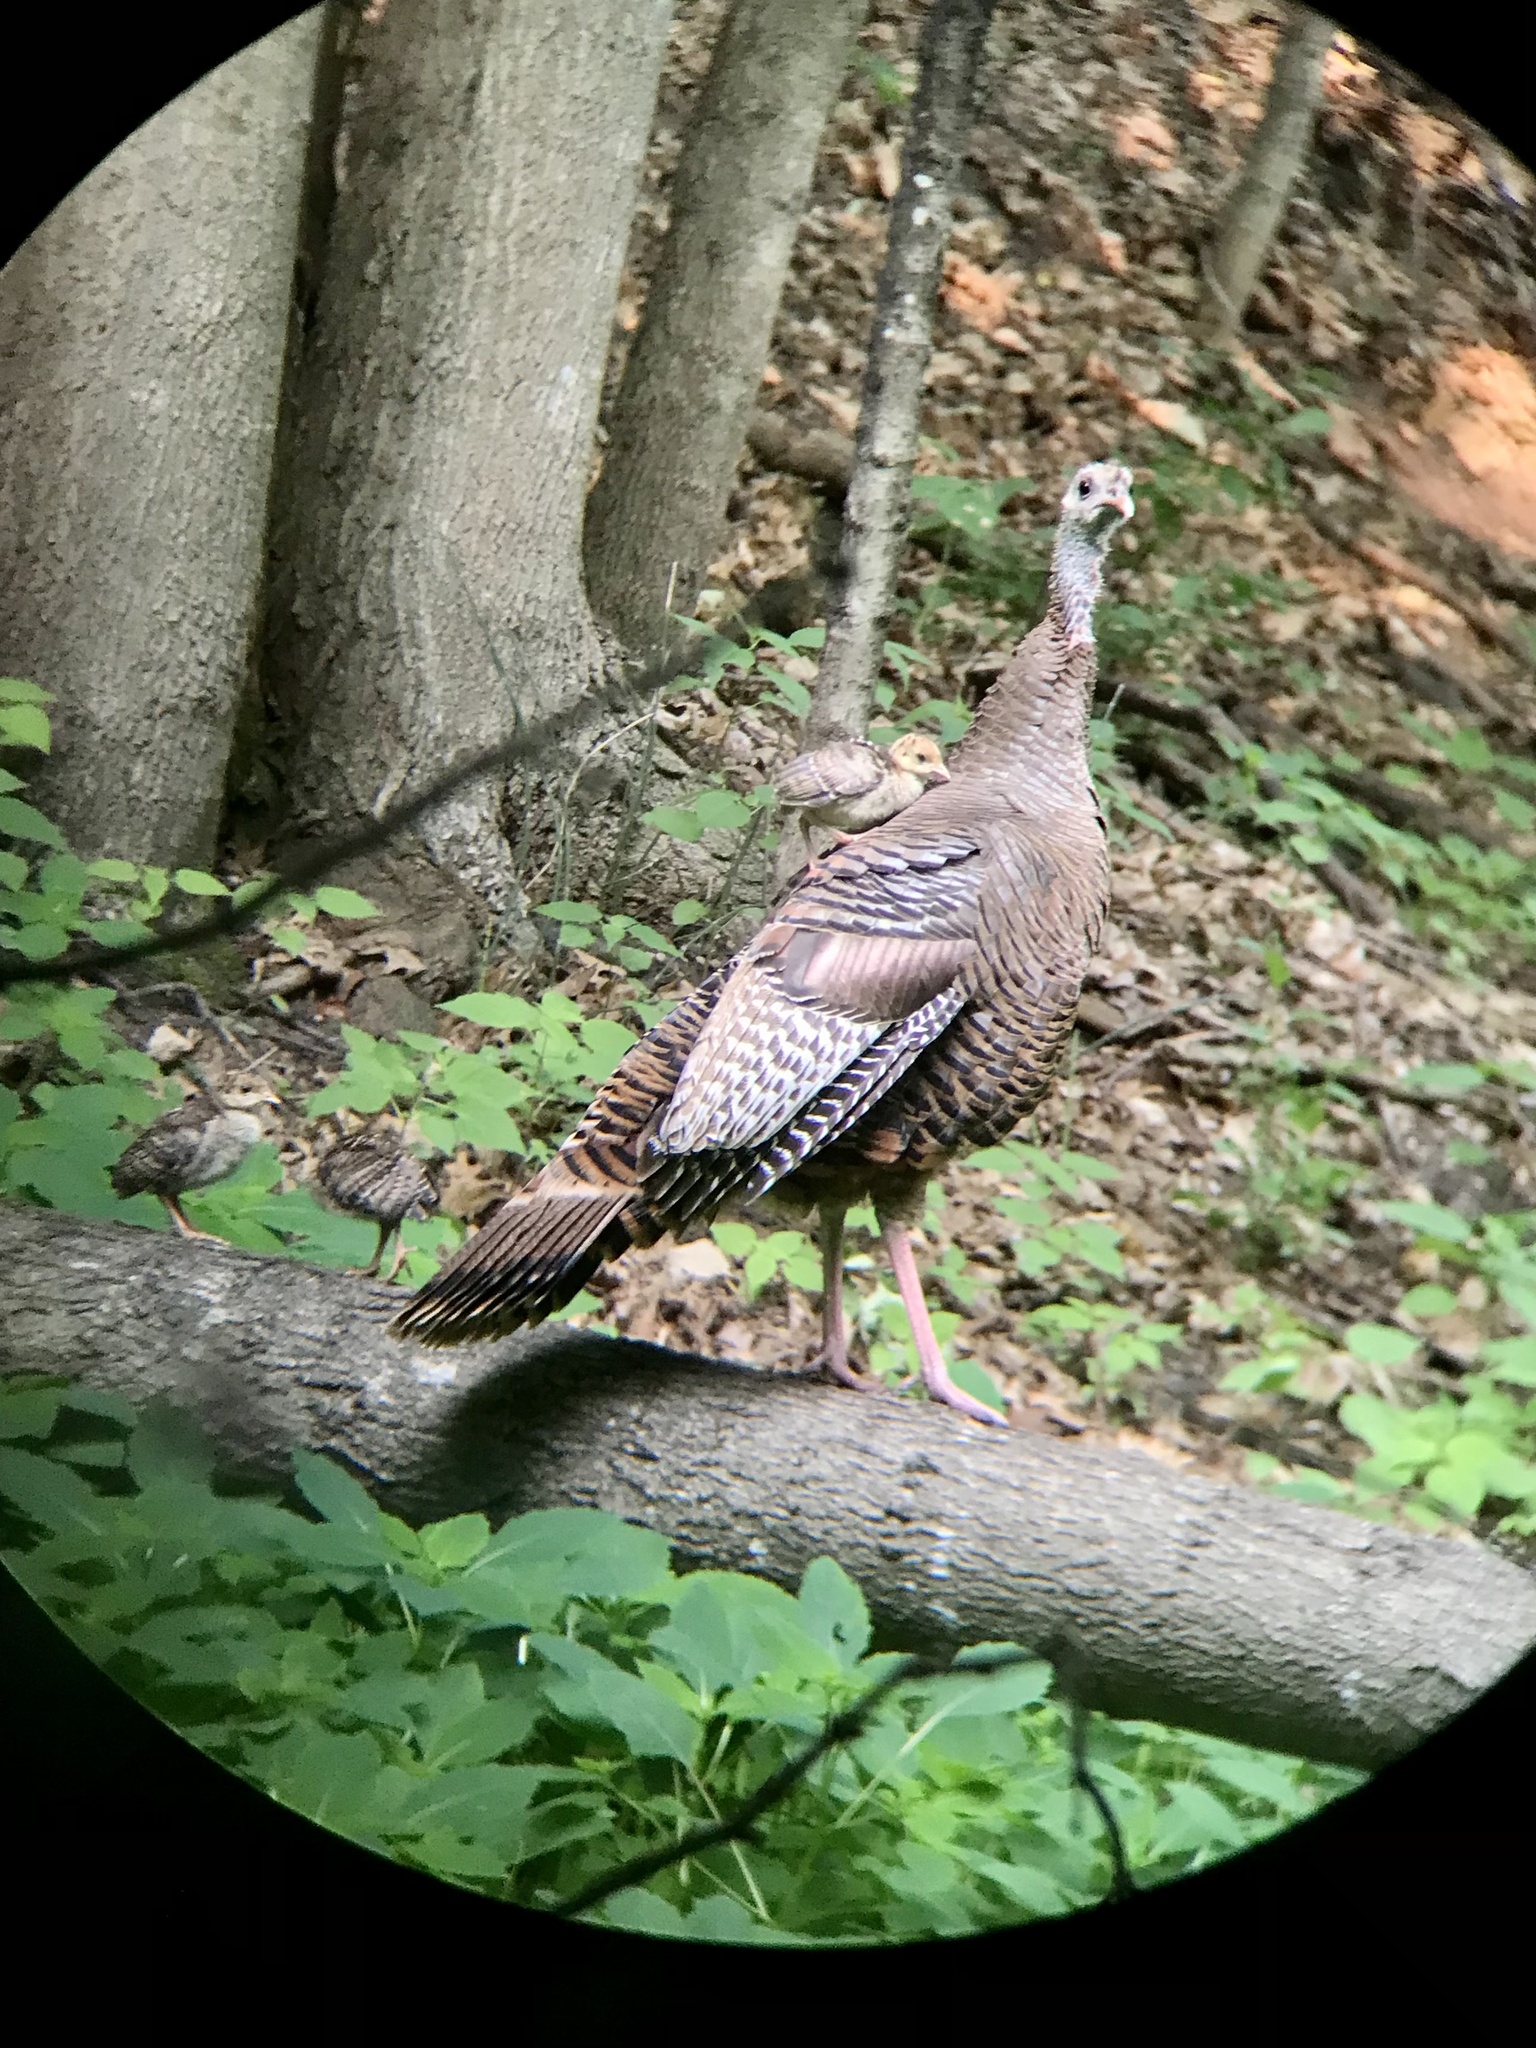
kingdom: Animalia
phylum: Chordata
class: Aves
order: Galliformes
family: Phasianidae
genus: Meleagris
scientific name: Meleagris gallopavo
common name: Wild turkey
